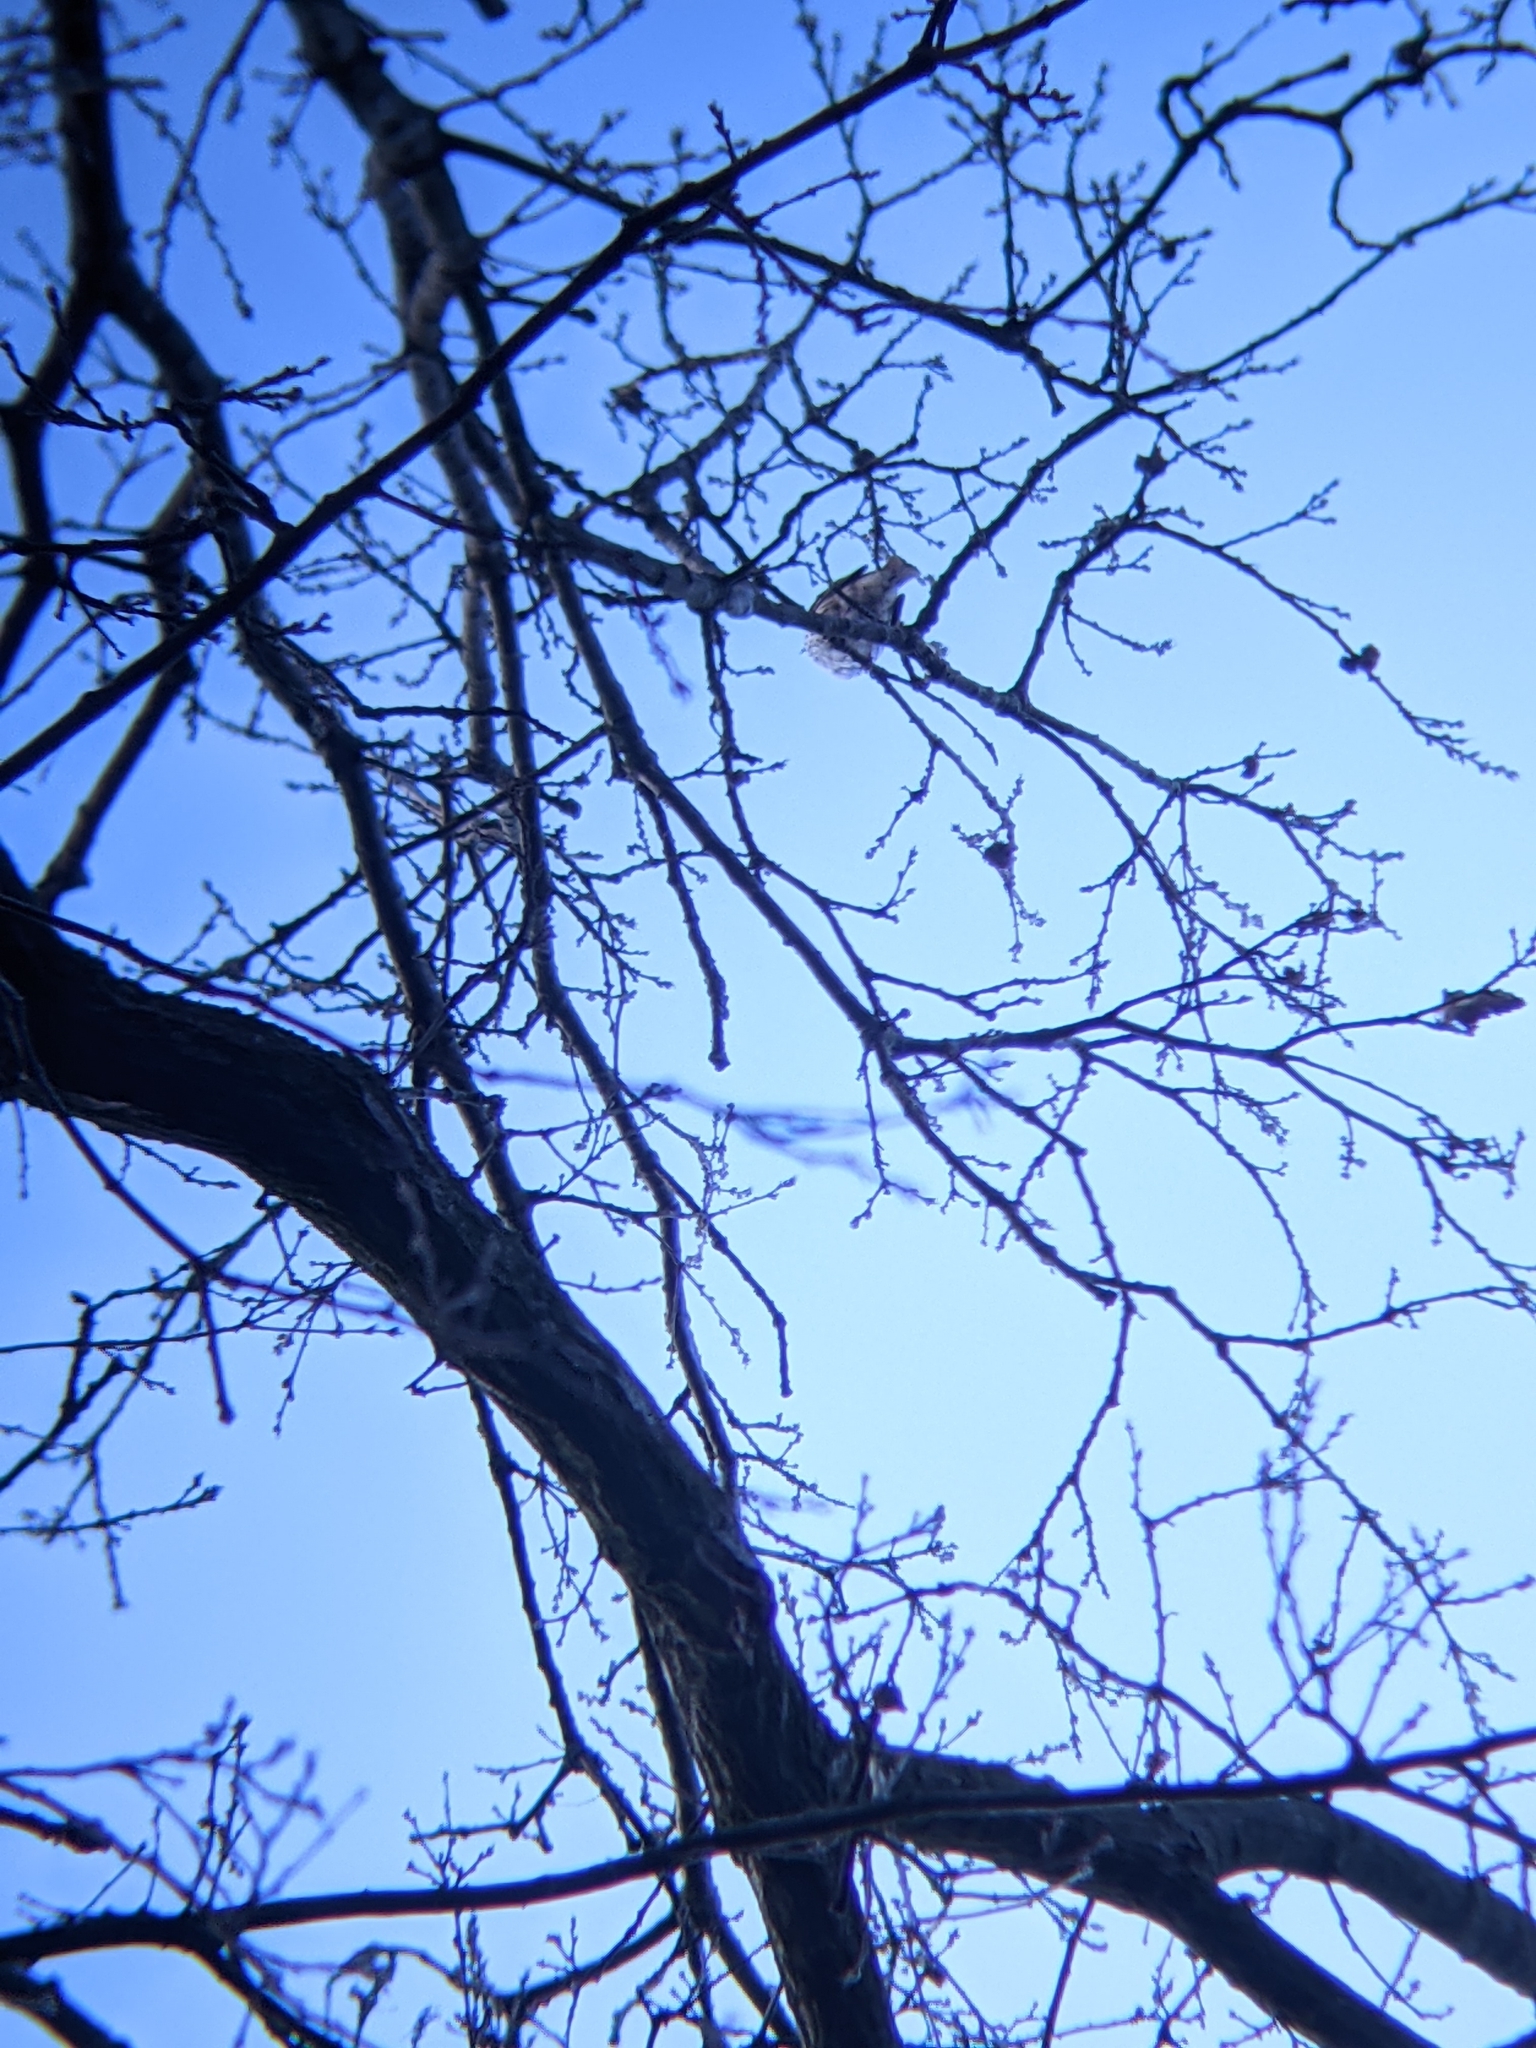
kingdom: Animalia
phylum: Chordata
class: Aves
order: Passeriformes
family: Turdidae
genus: Turdus
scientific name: Turdus philomelos
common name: Song thrush
